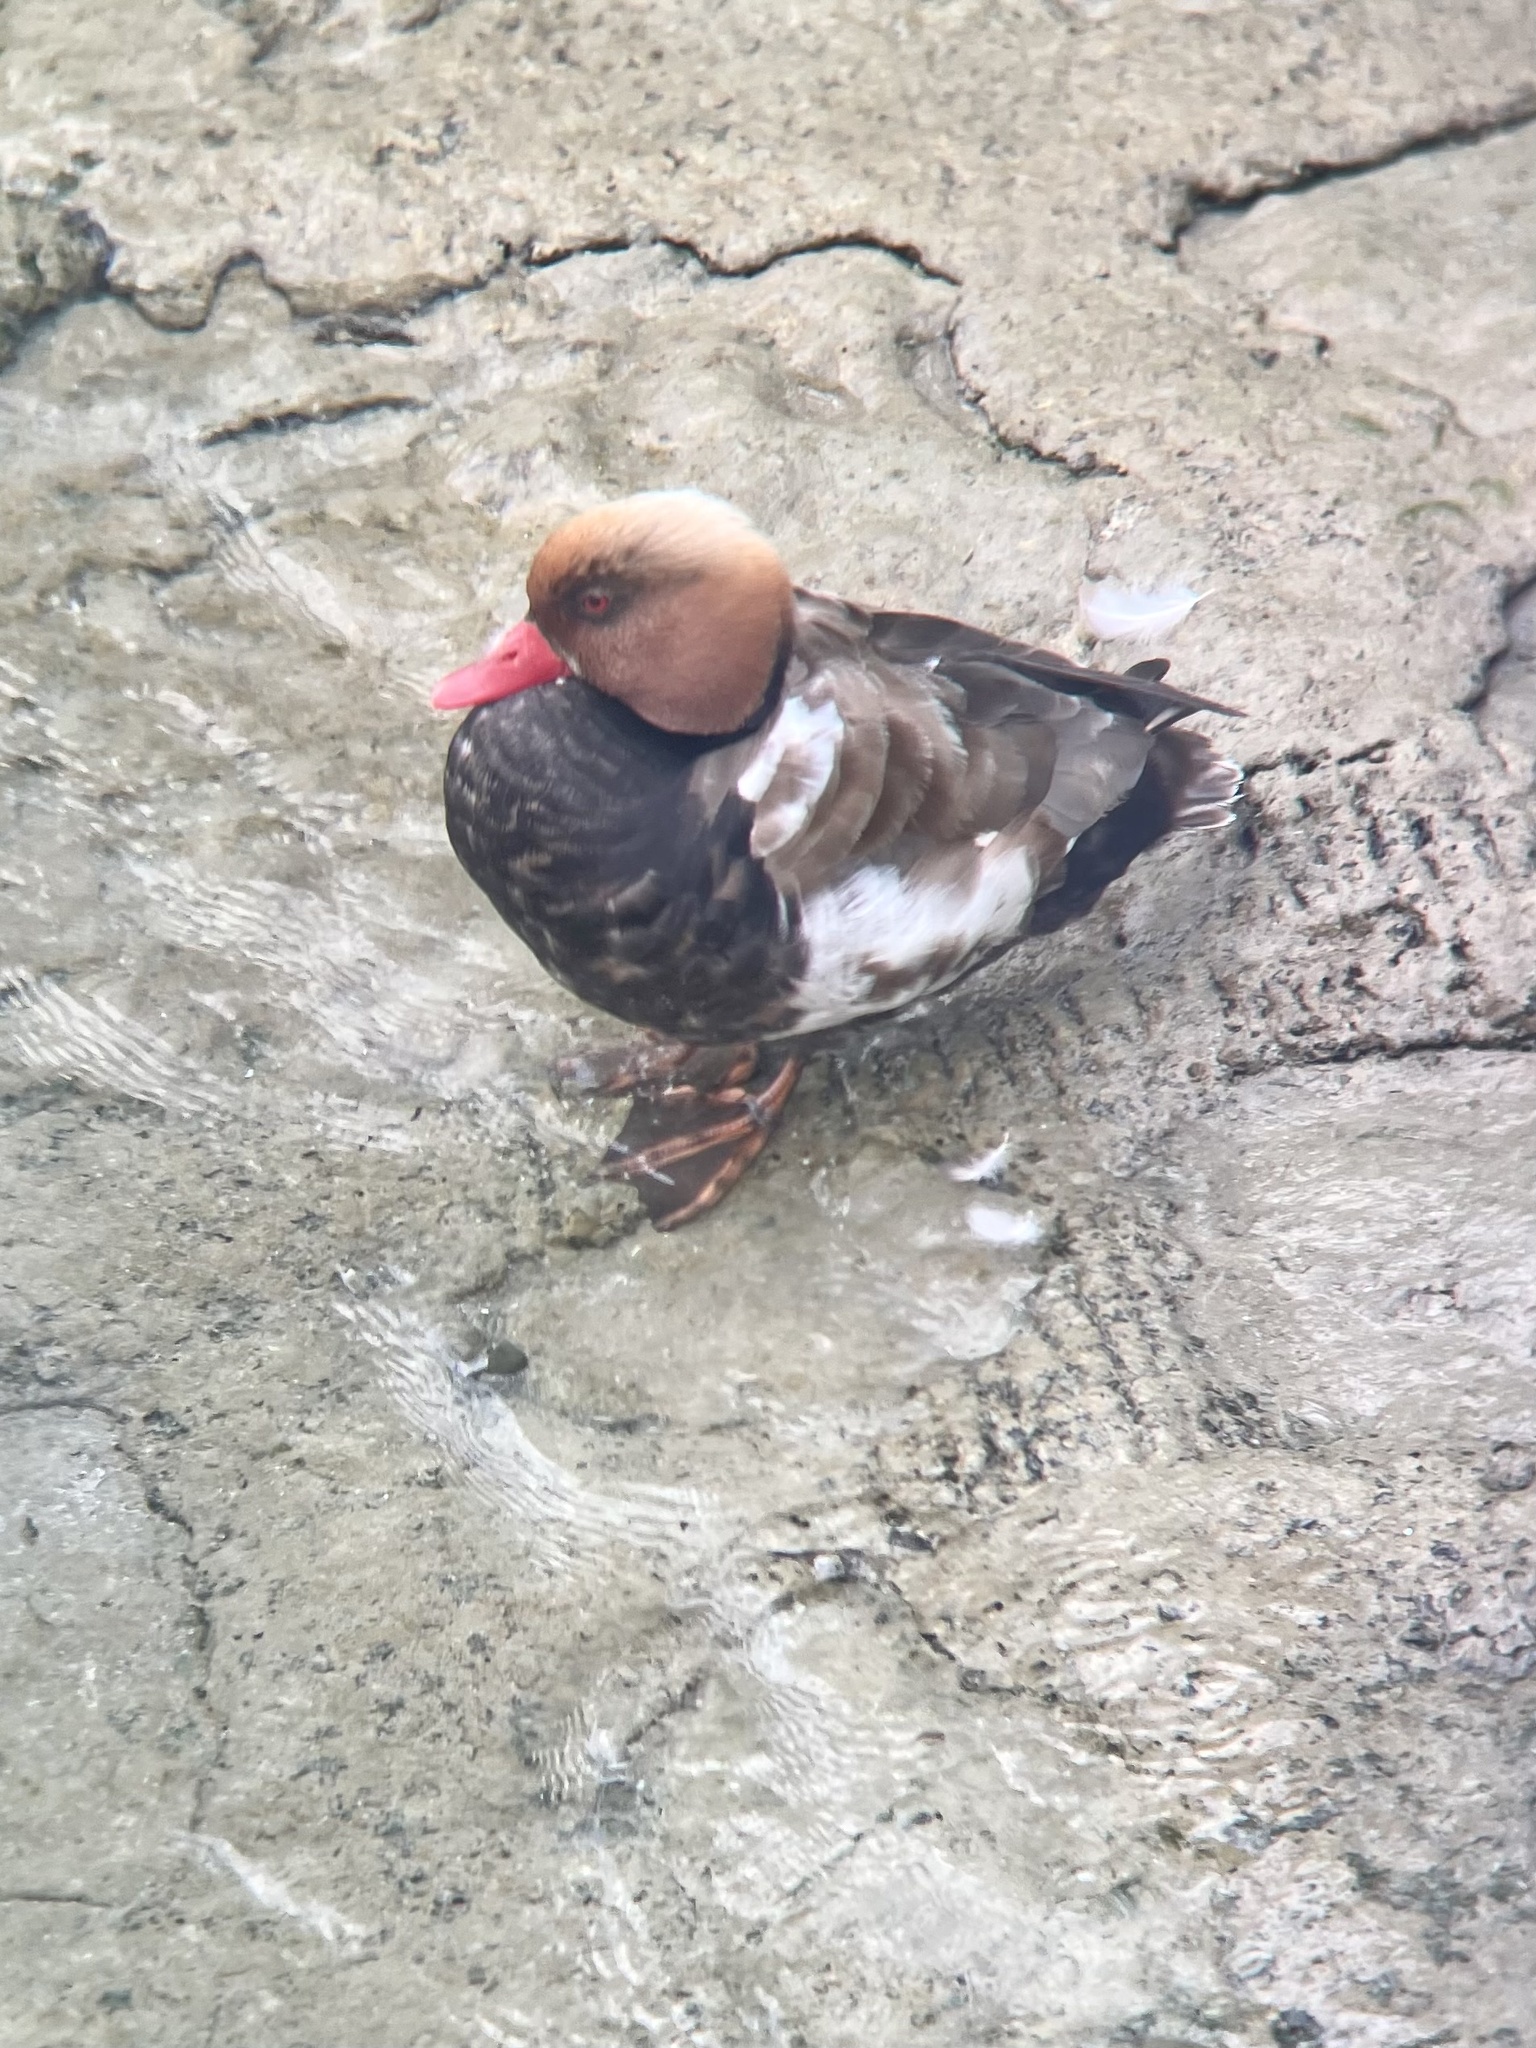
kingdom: Animalia
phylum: Chordata
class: Aves
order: Anseriformes
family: Anatidae
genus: Netta
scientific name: Netta rufina
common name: Red-crested pochard
